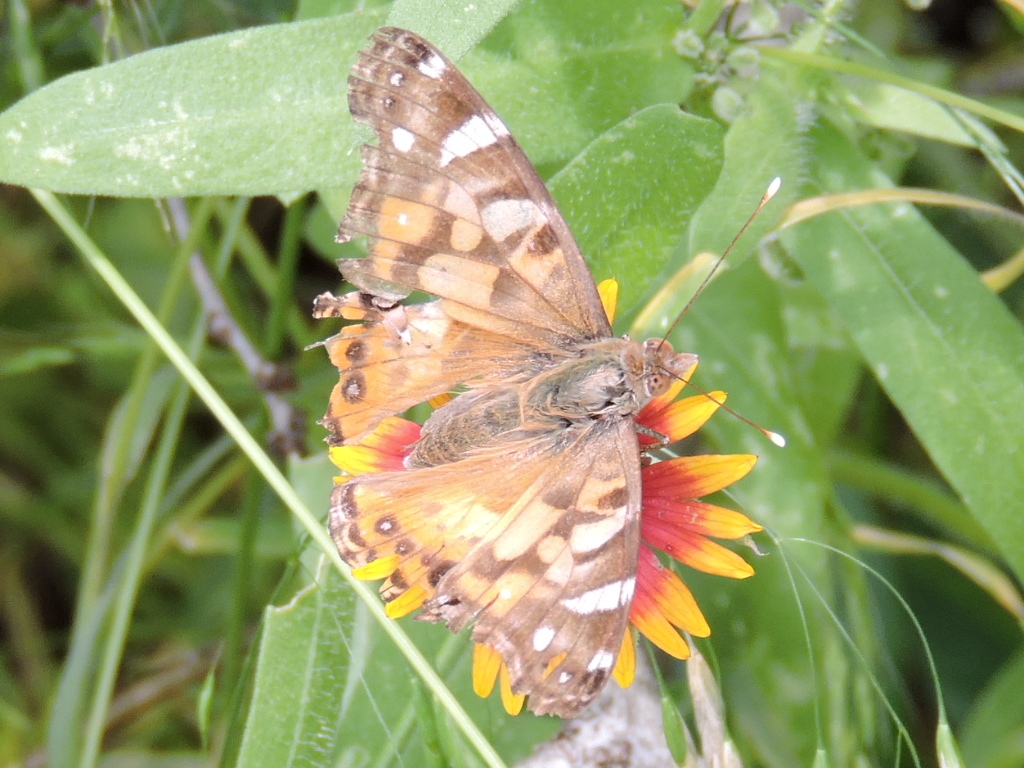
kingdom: Animalia
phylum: Arthropoda
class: Insecta
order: Lepidoptera
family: Nymphalidae
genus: Vanessa
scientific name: Vanessa virginiensis
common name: American lady
